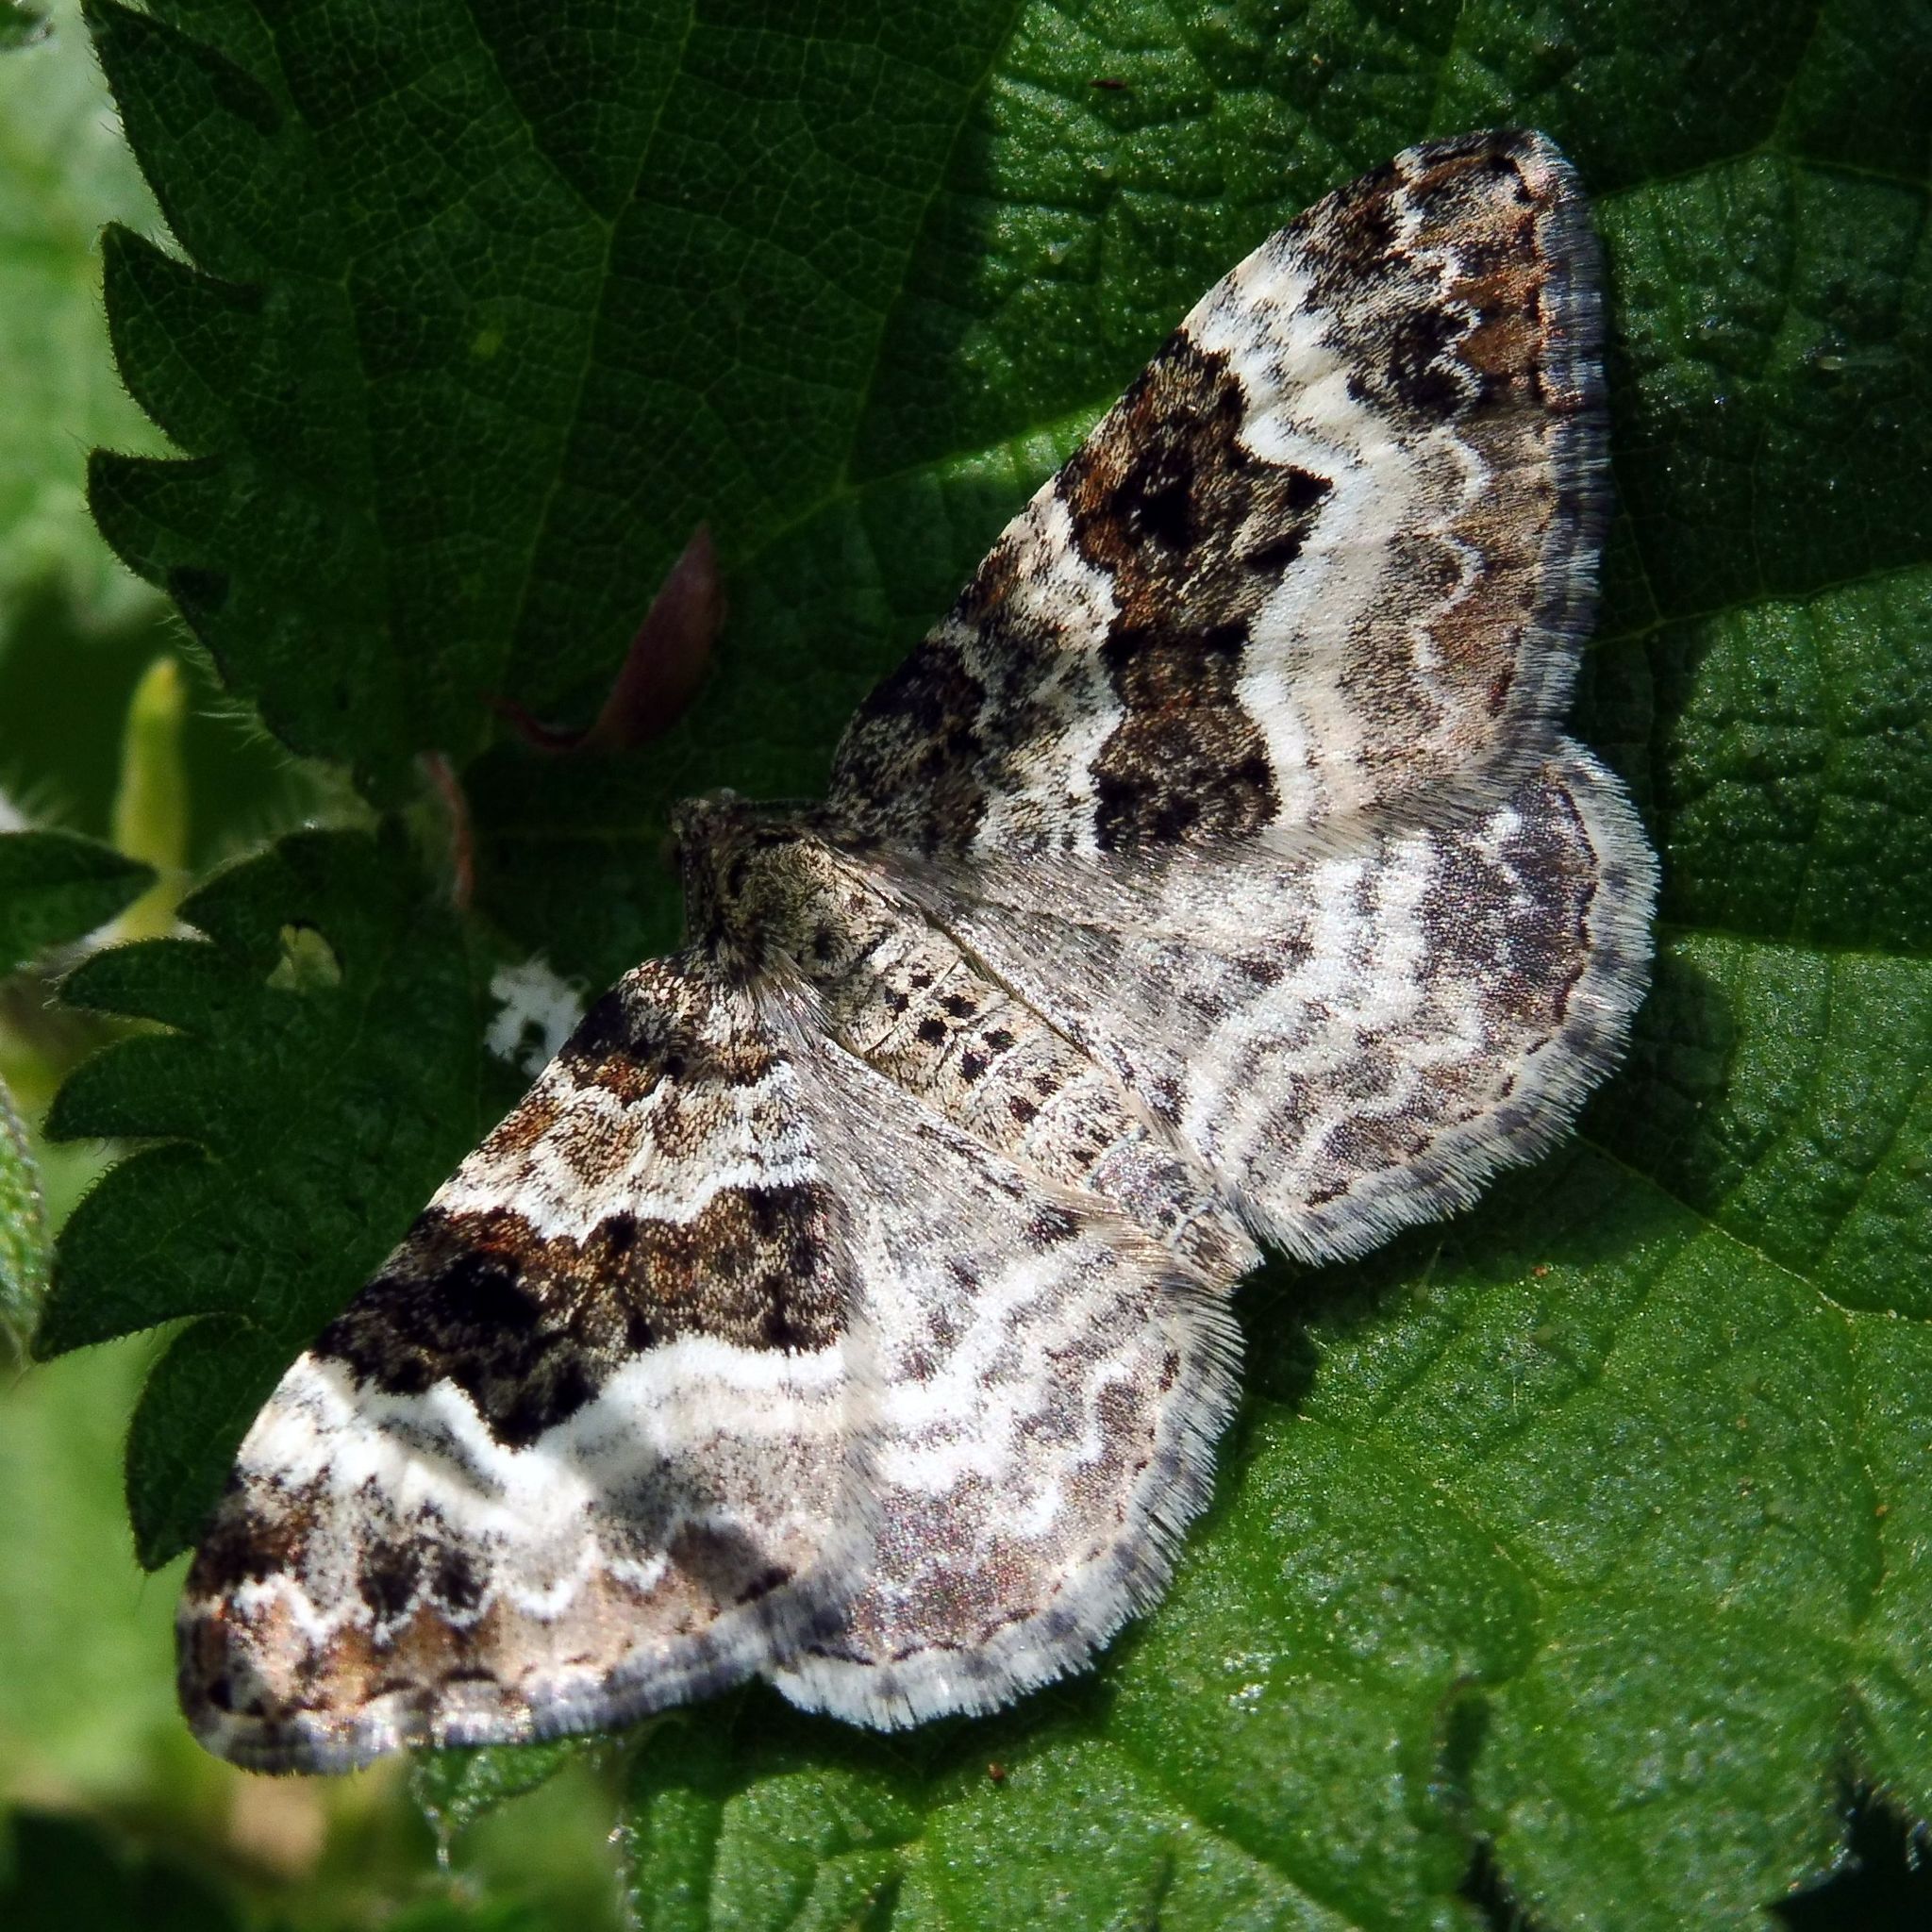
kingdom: Animalia
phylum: Arthropoda
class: Insecta
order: Lepidoptera
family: Geometridae
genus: Epirrhoe
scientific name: Epirrhoe alternata
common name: Common carpet
